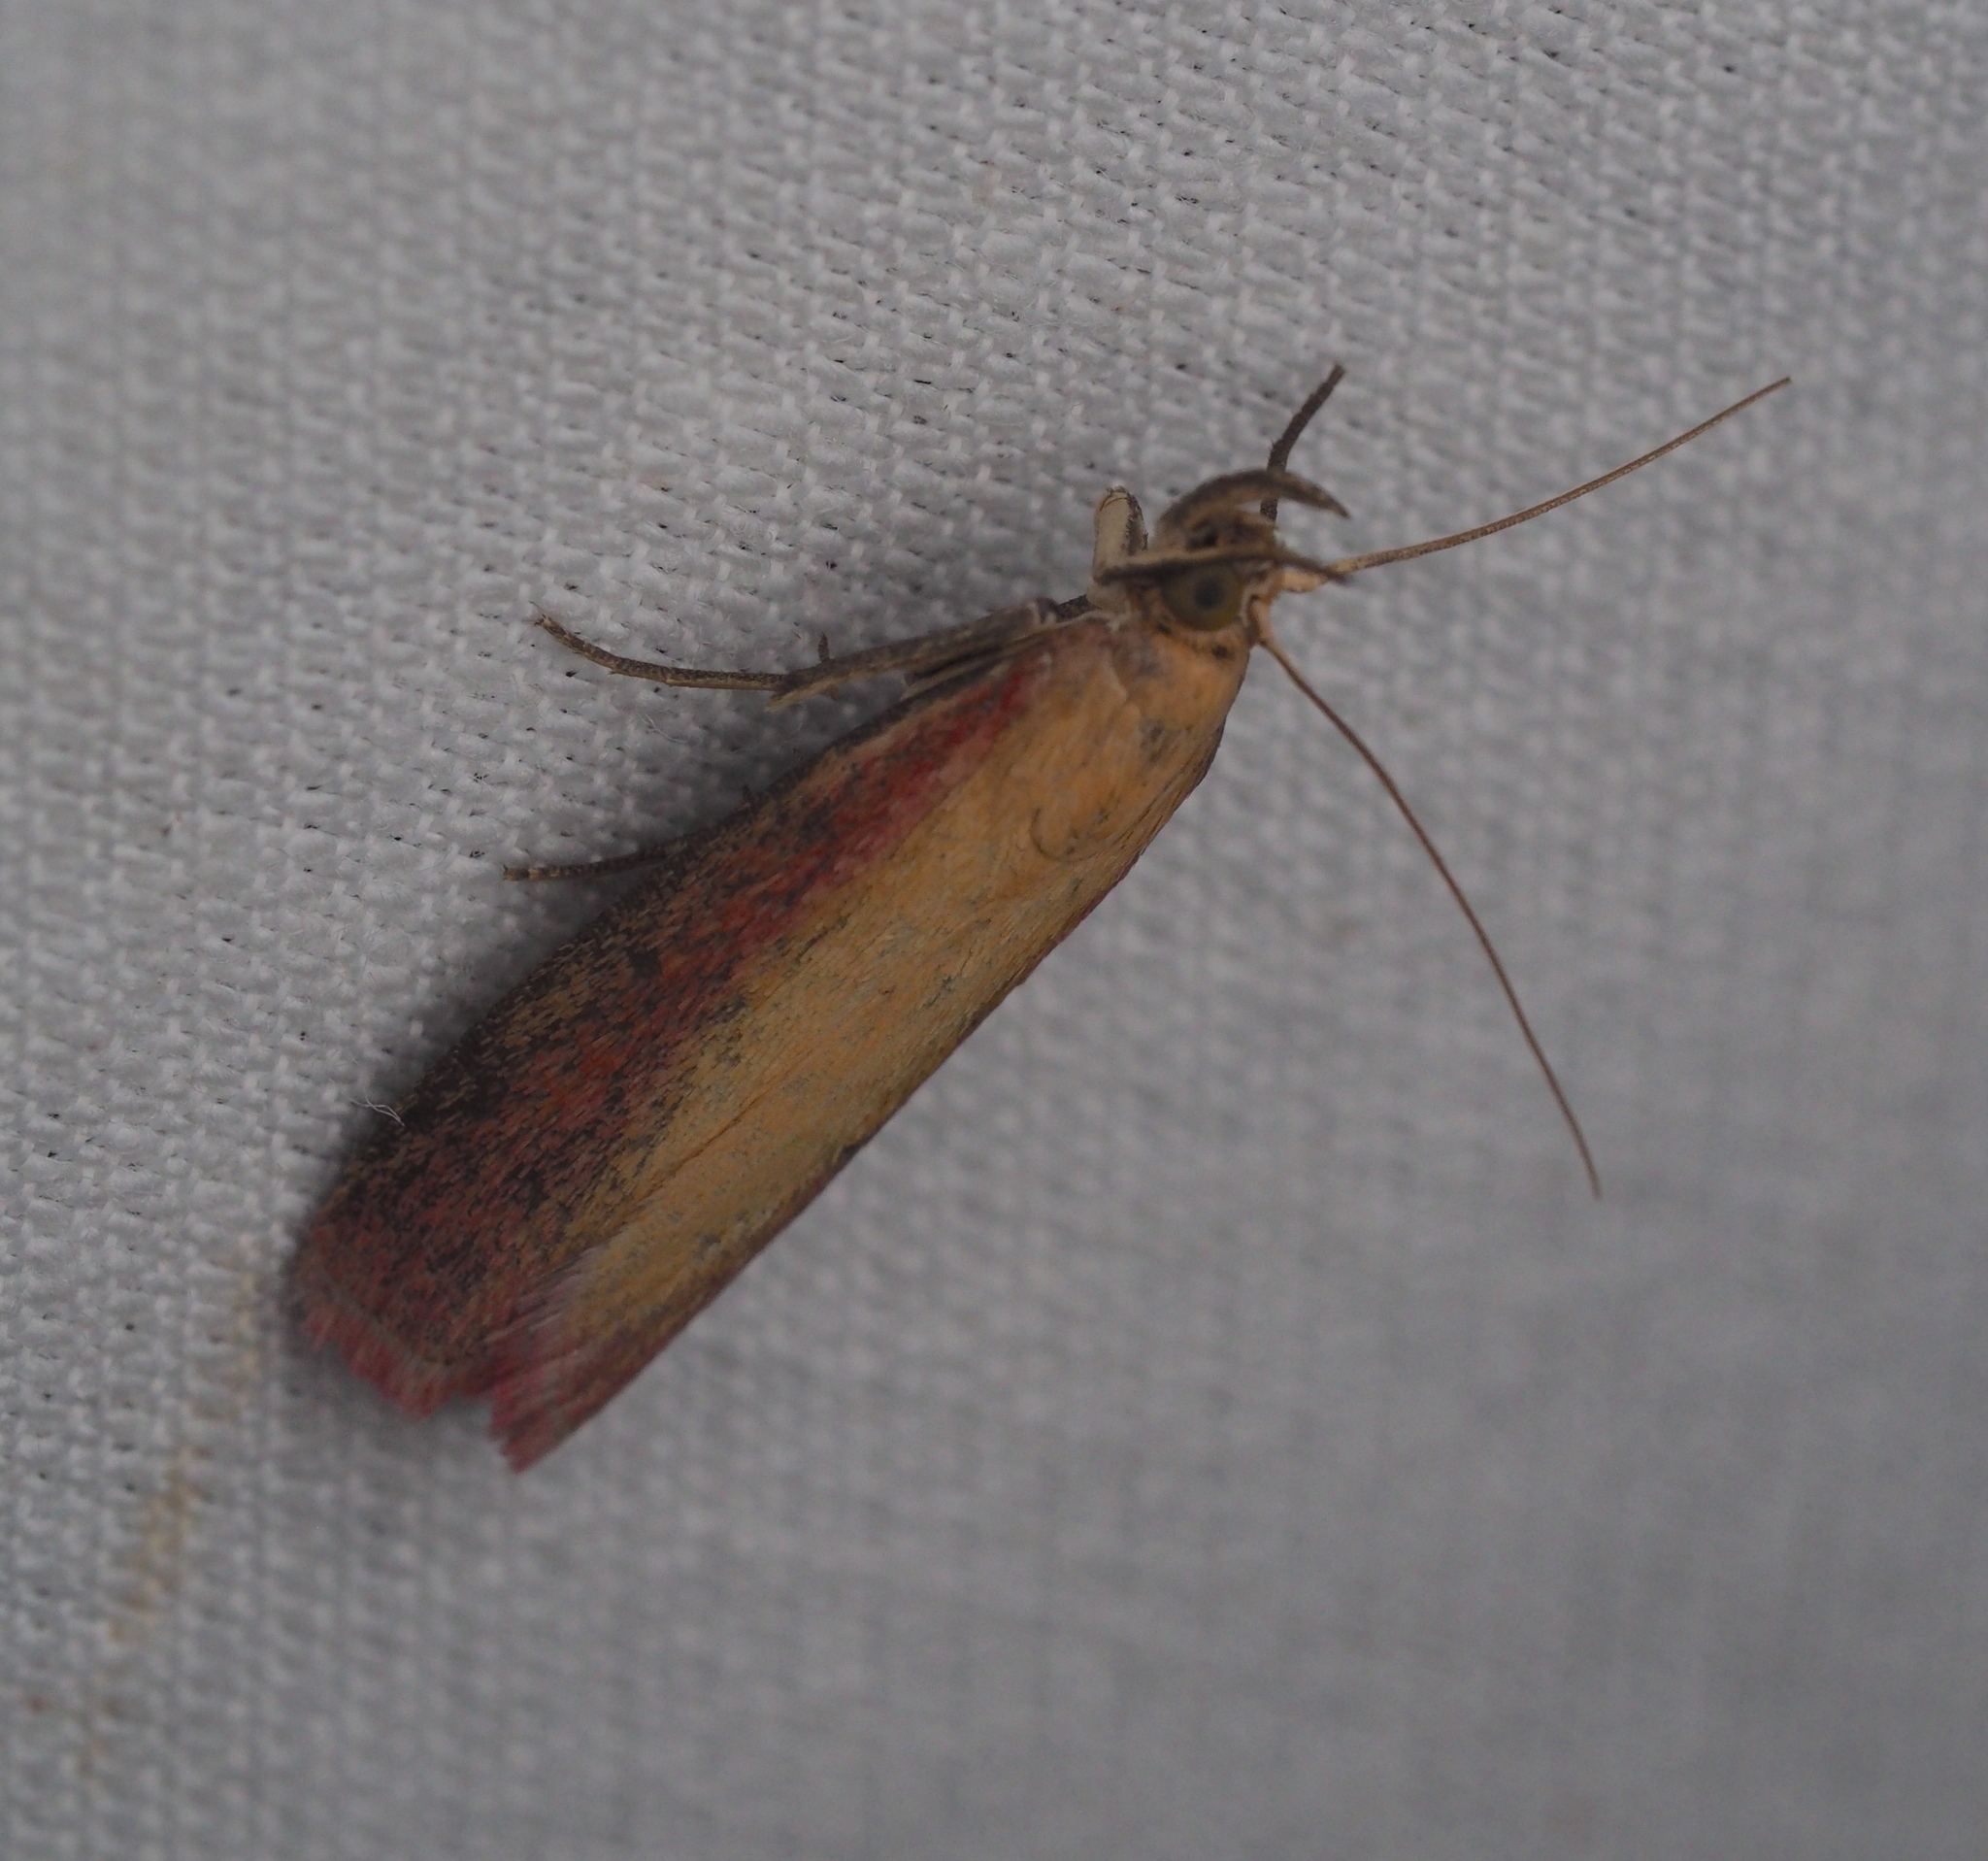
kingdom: Animalia
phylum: Arthropoda
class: Insecta
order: Lepidoptera
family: Pyralidae
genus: Oncocera
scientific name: Oncocera semirubella
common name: Rosy-striped knot-horn
